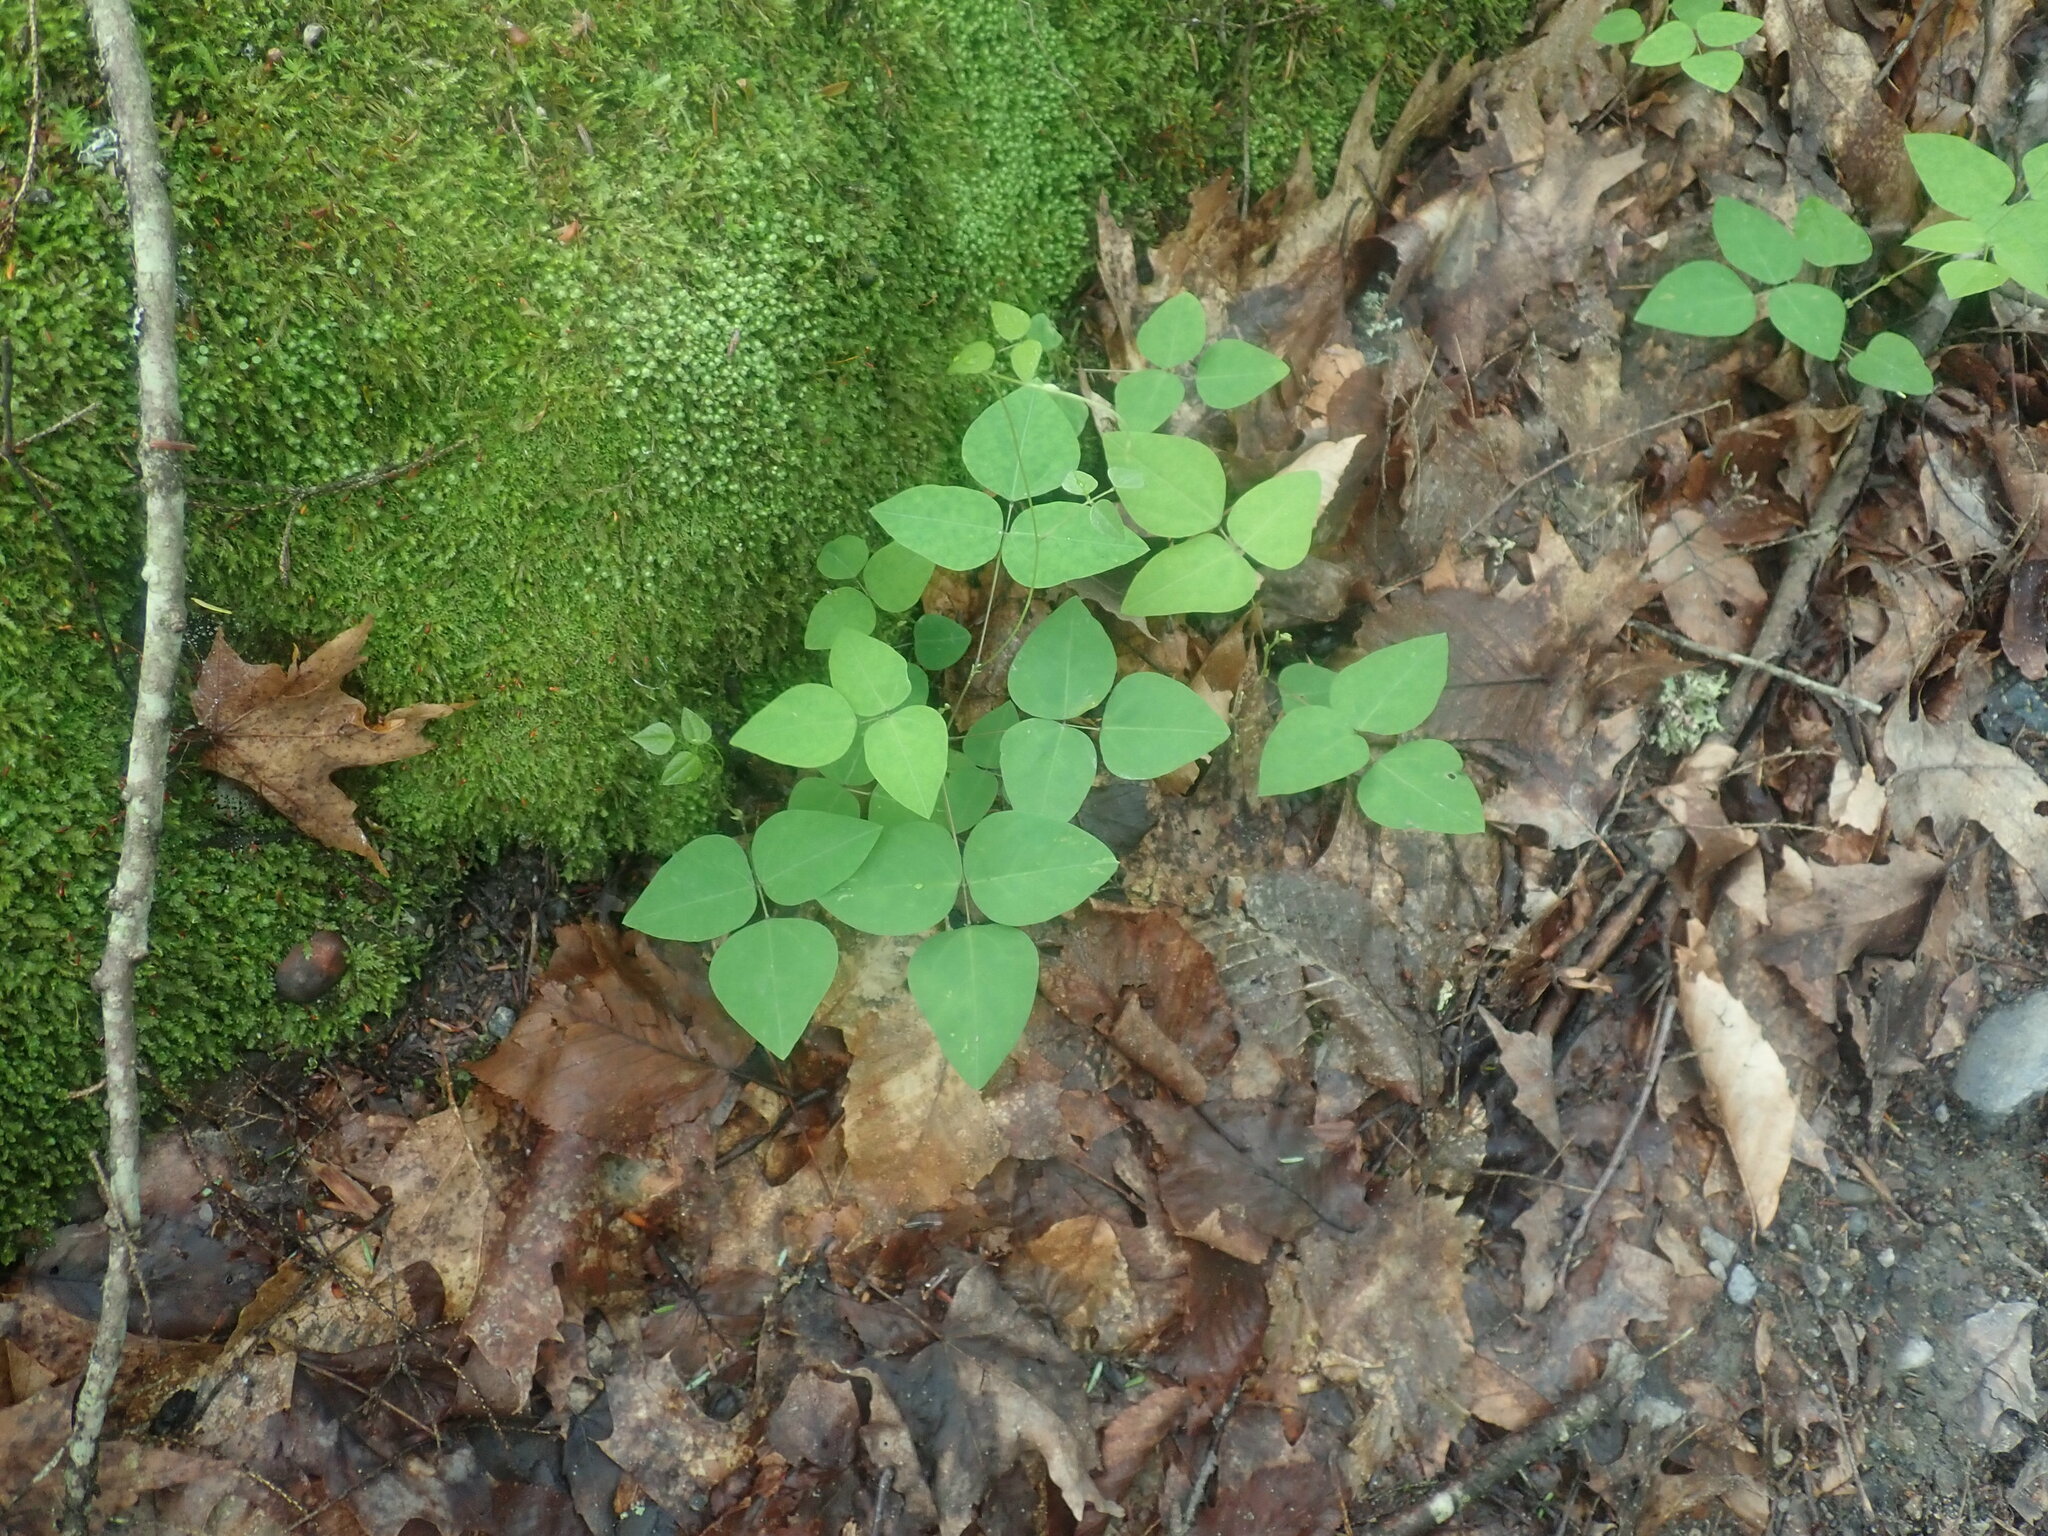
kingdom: Plantae
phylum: Tracheophyta
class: Magnoliopsida
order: Fabales
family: Fabaceae
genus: Amphicarpaea
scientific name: Amphicarpaea bracteata
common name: American hog peanut
